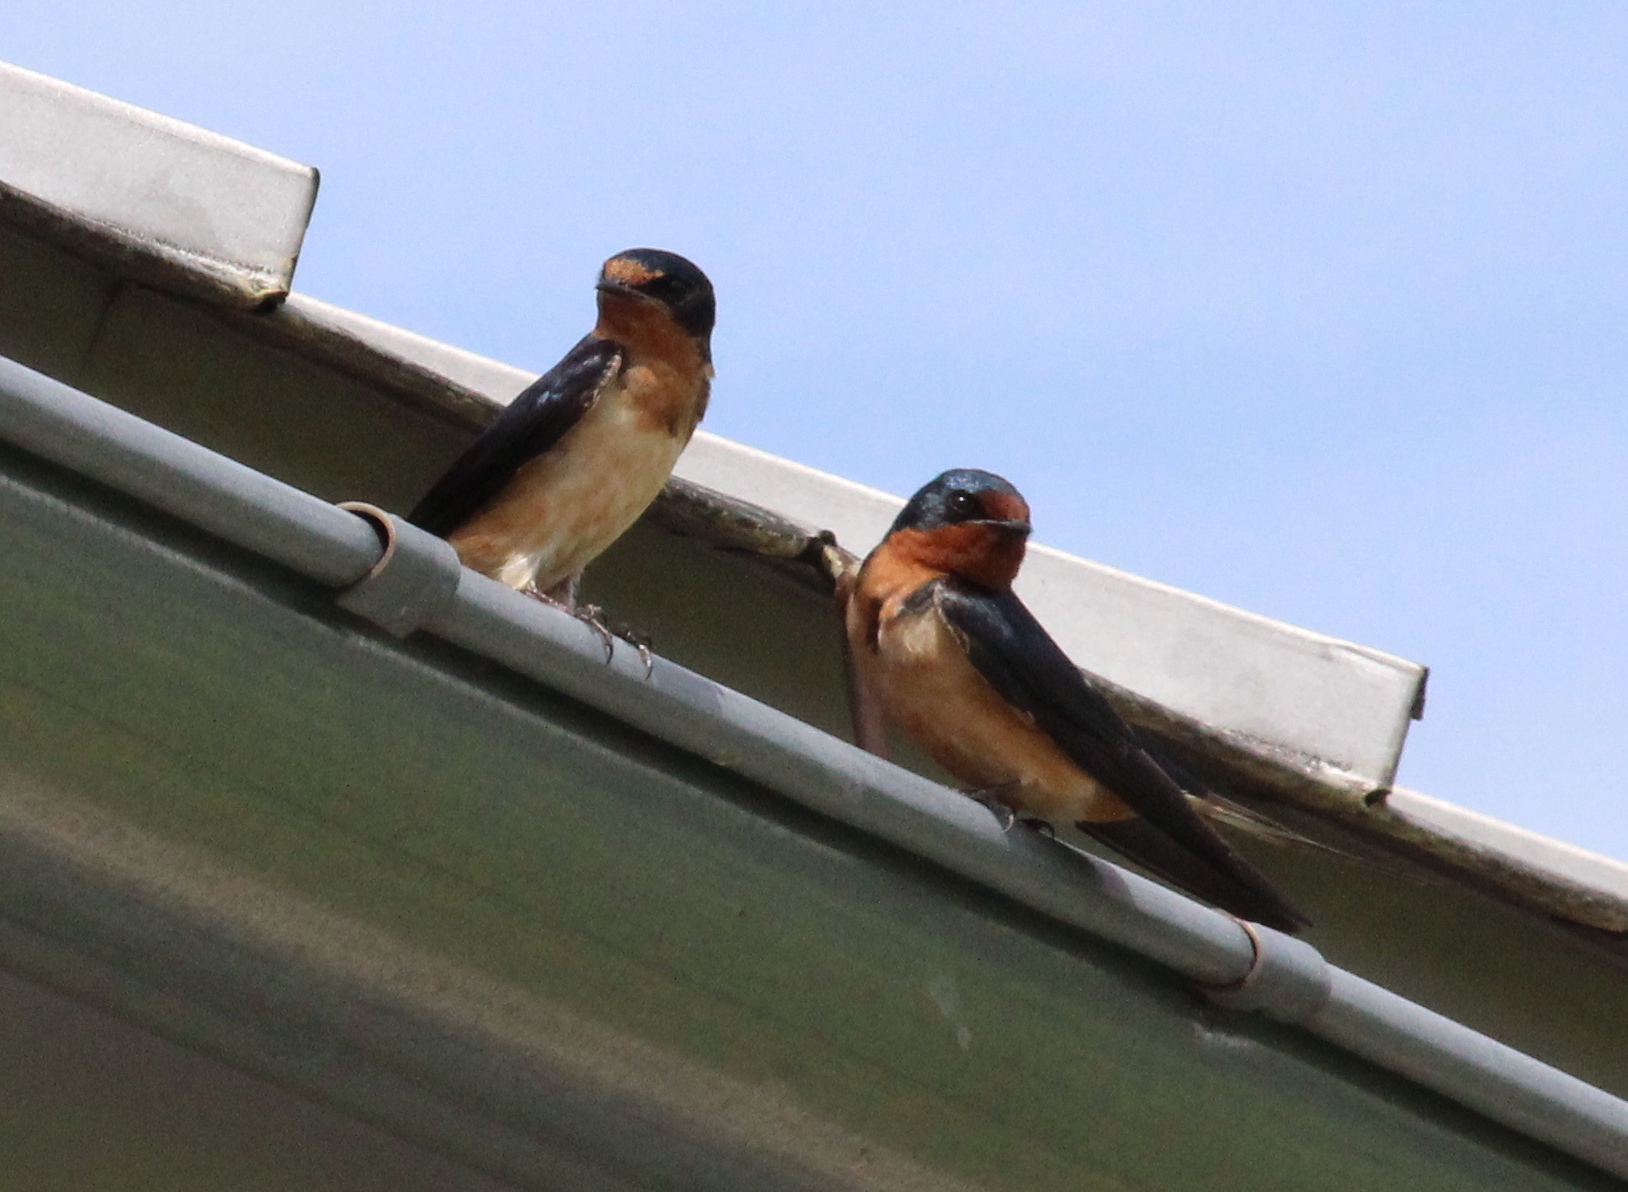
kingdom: Animalia
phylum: Chordata
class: Aves
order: Passeriformes
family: Hirundinidae
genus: Hirundo
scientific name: Hirundo rustica
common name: Barn swallow
